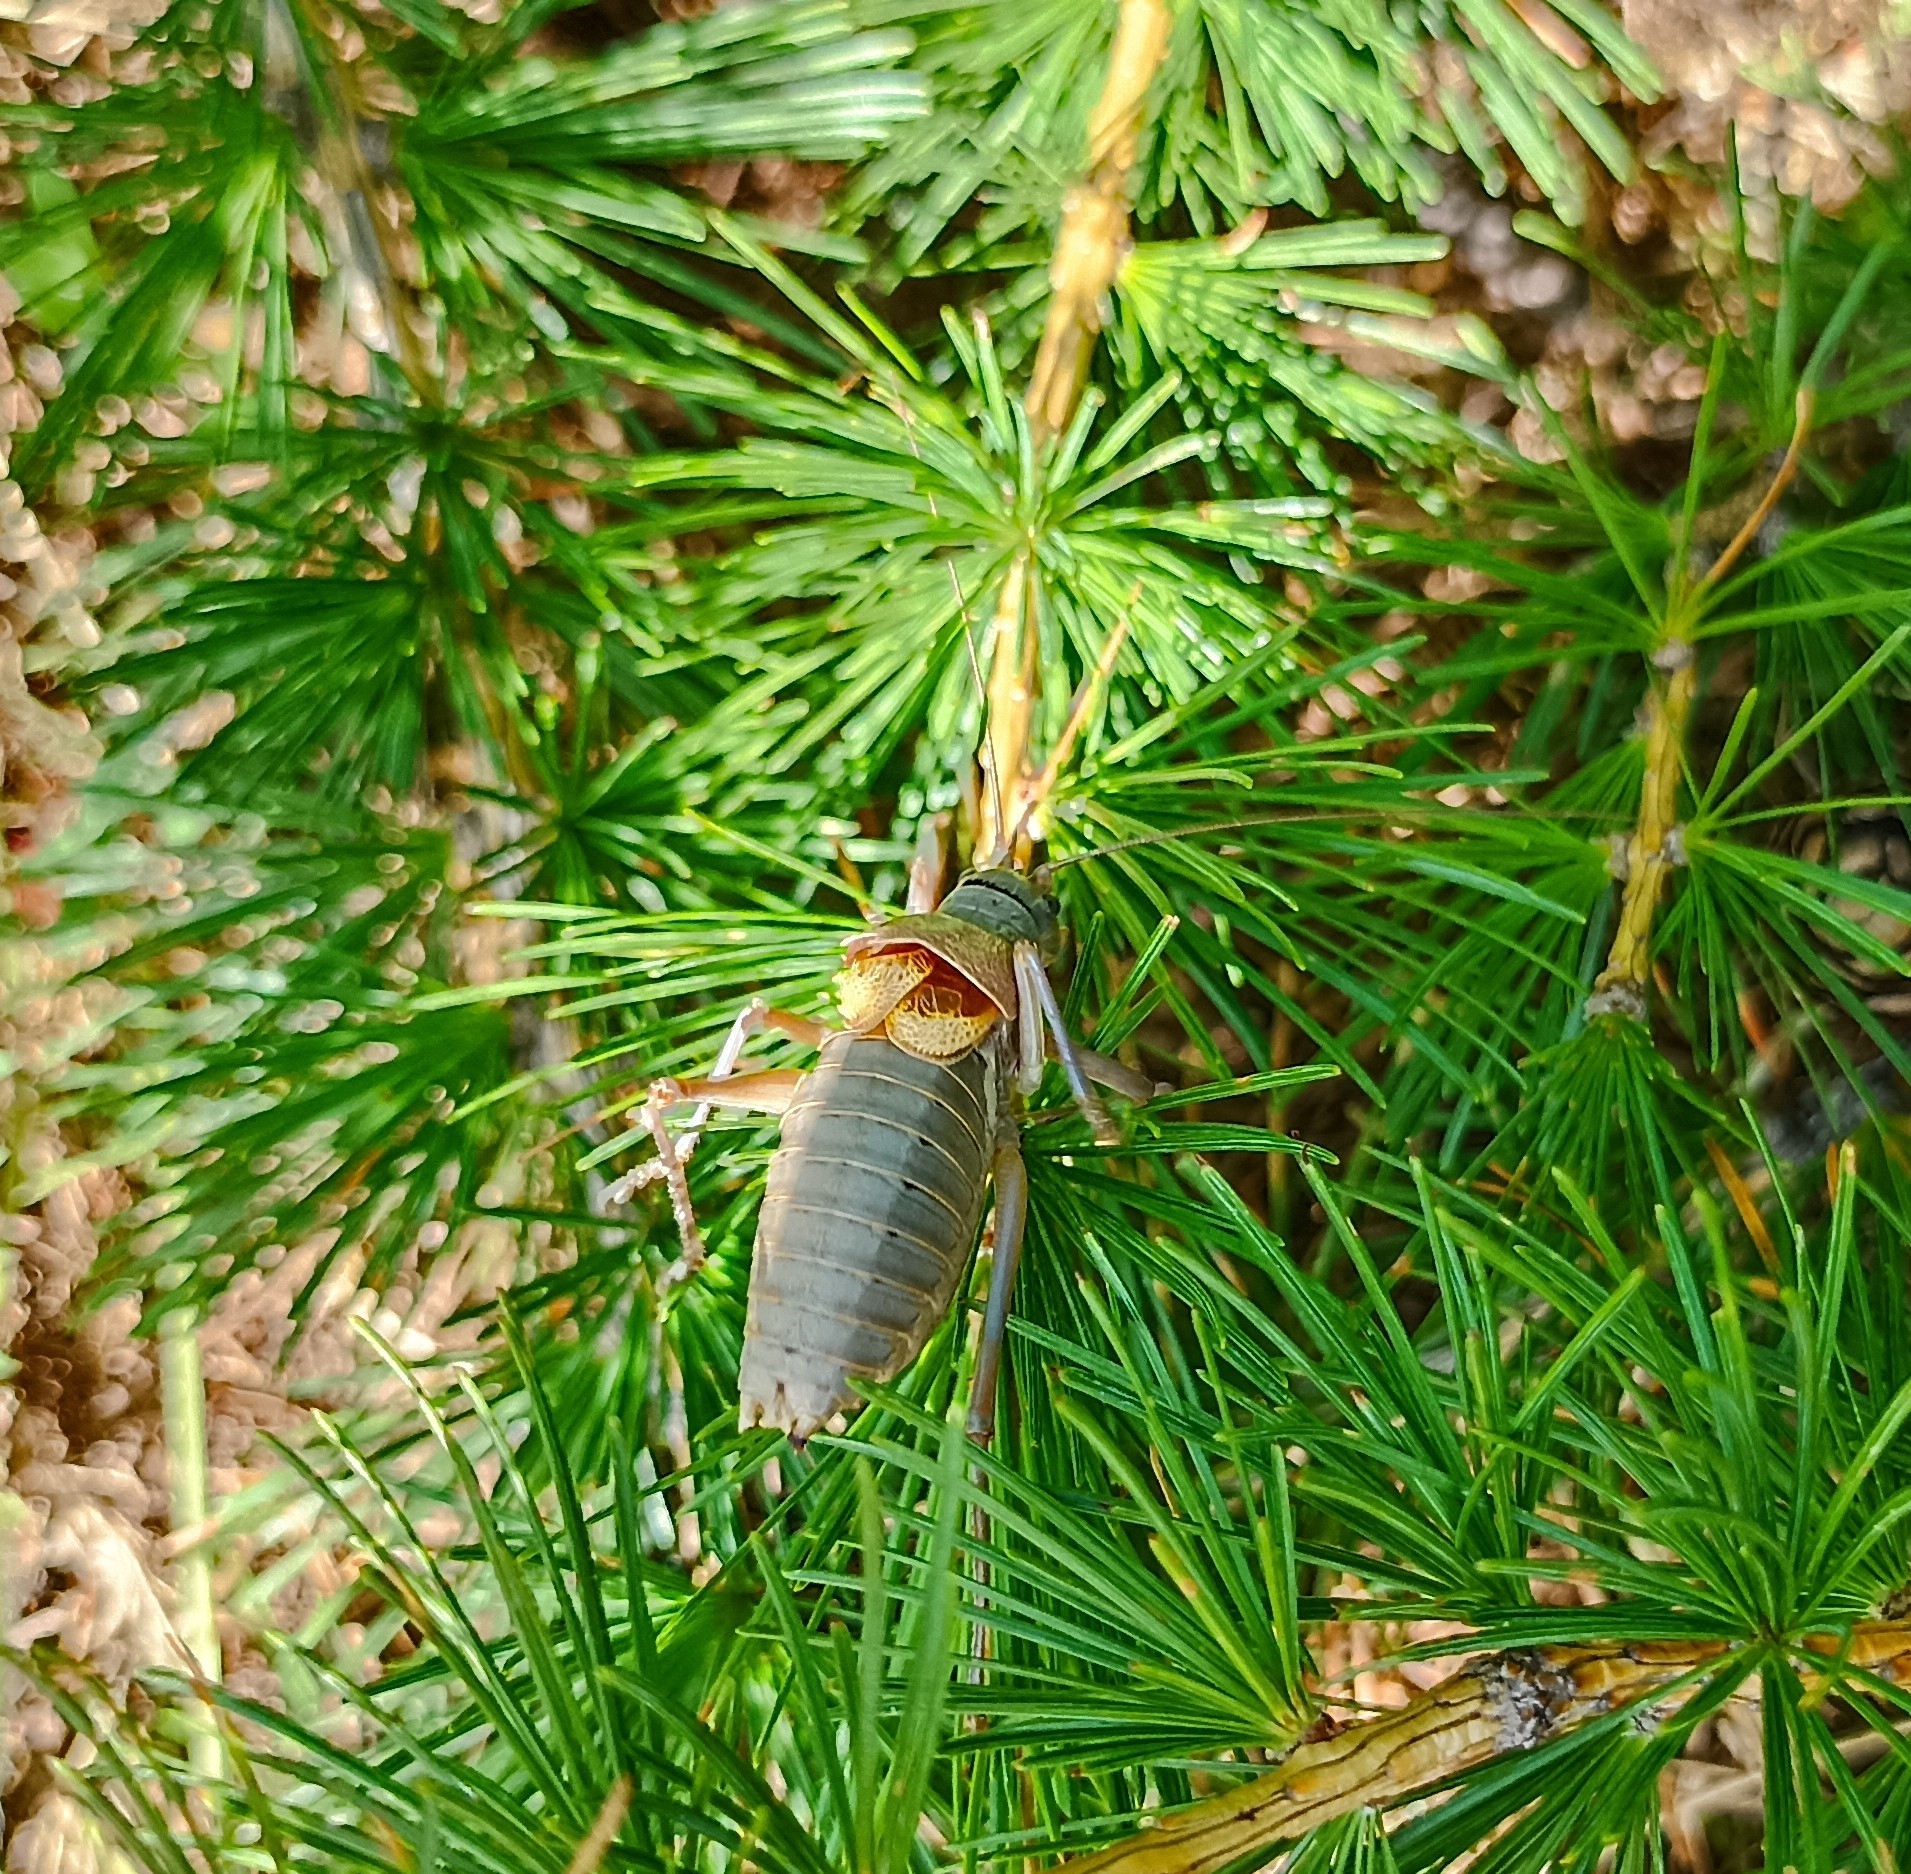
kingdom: Animalia
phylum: Arthropoda
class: Insecta
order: Orthoptera
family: Tettigoniidae
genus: Ephippiger
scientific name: Ephippiger terrestris
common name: Alpine saddle-backed bush-cricket
